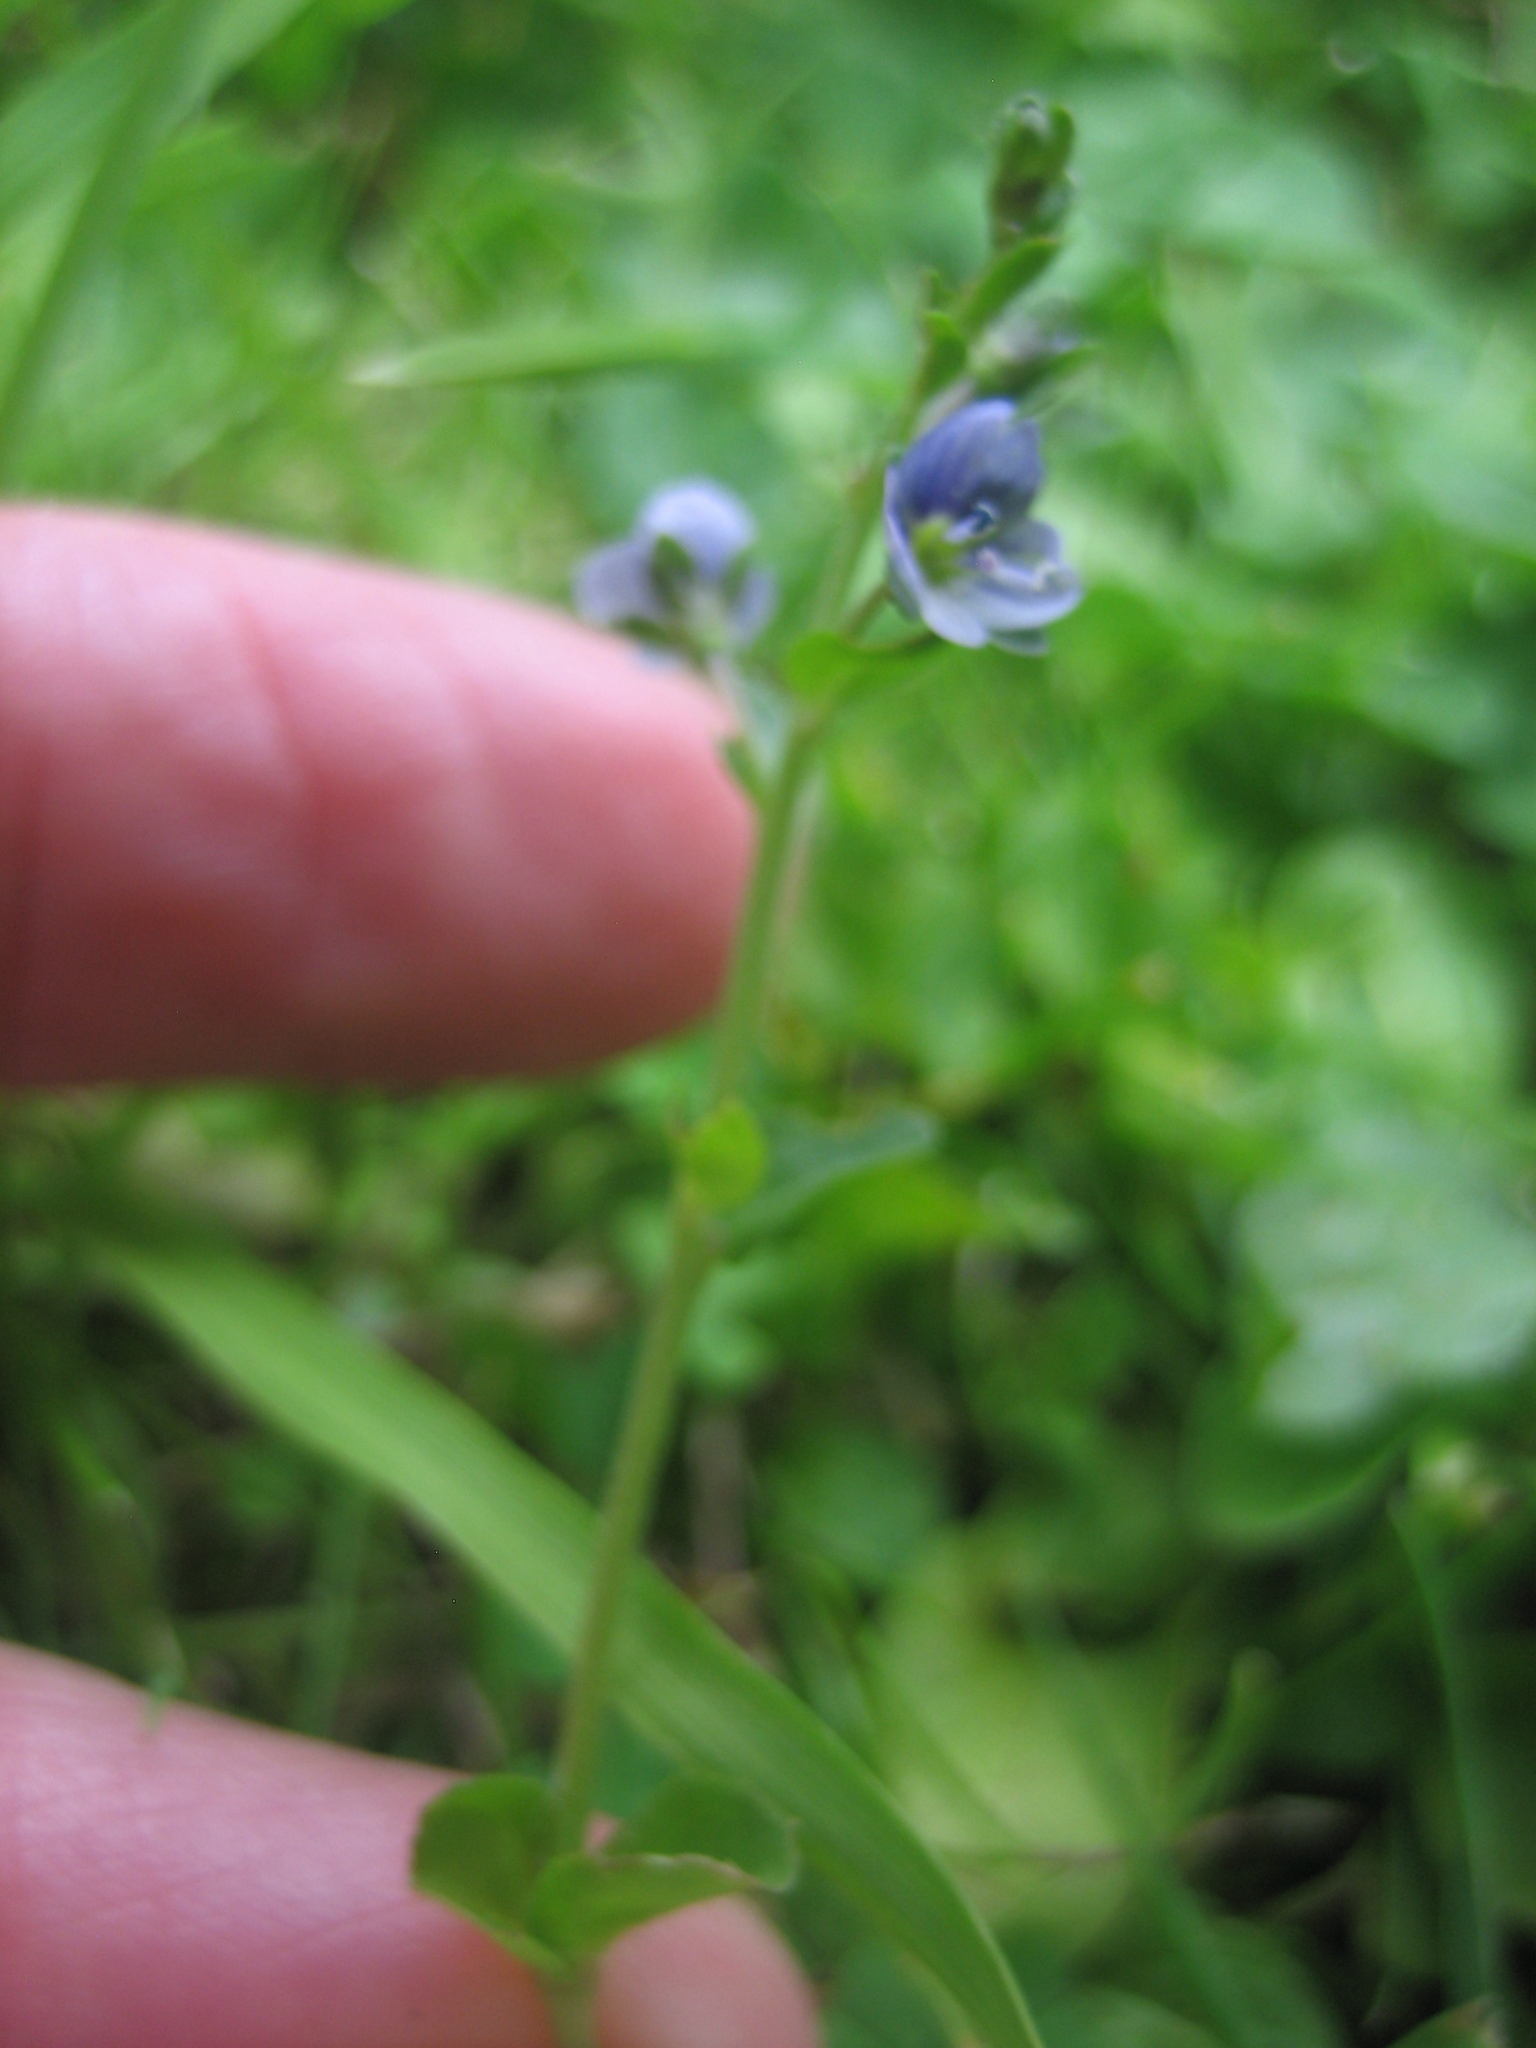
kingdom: Plantae
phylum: Tracheophyta
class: Magnoliopsida
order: Lamiales
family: Plantaginaceae
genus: Veronica
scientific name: Veronica serpyllifolia
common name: Thyme-leaved speedwell
